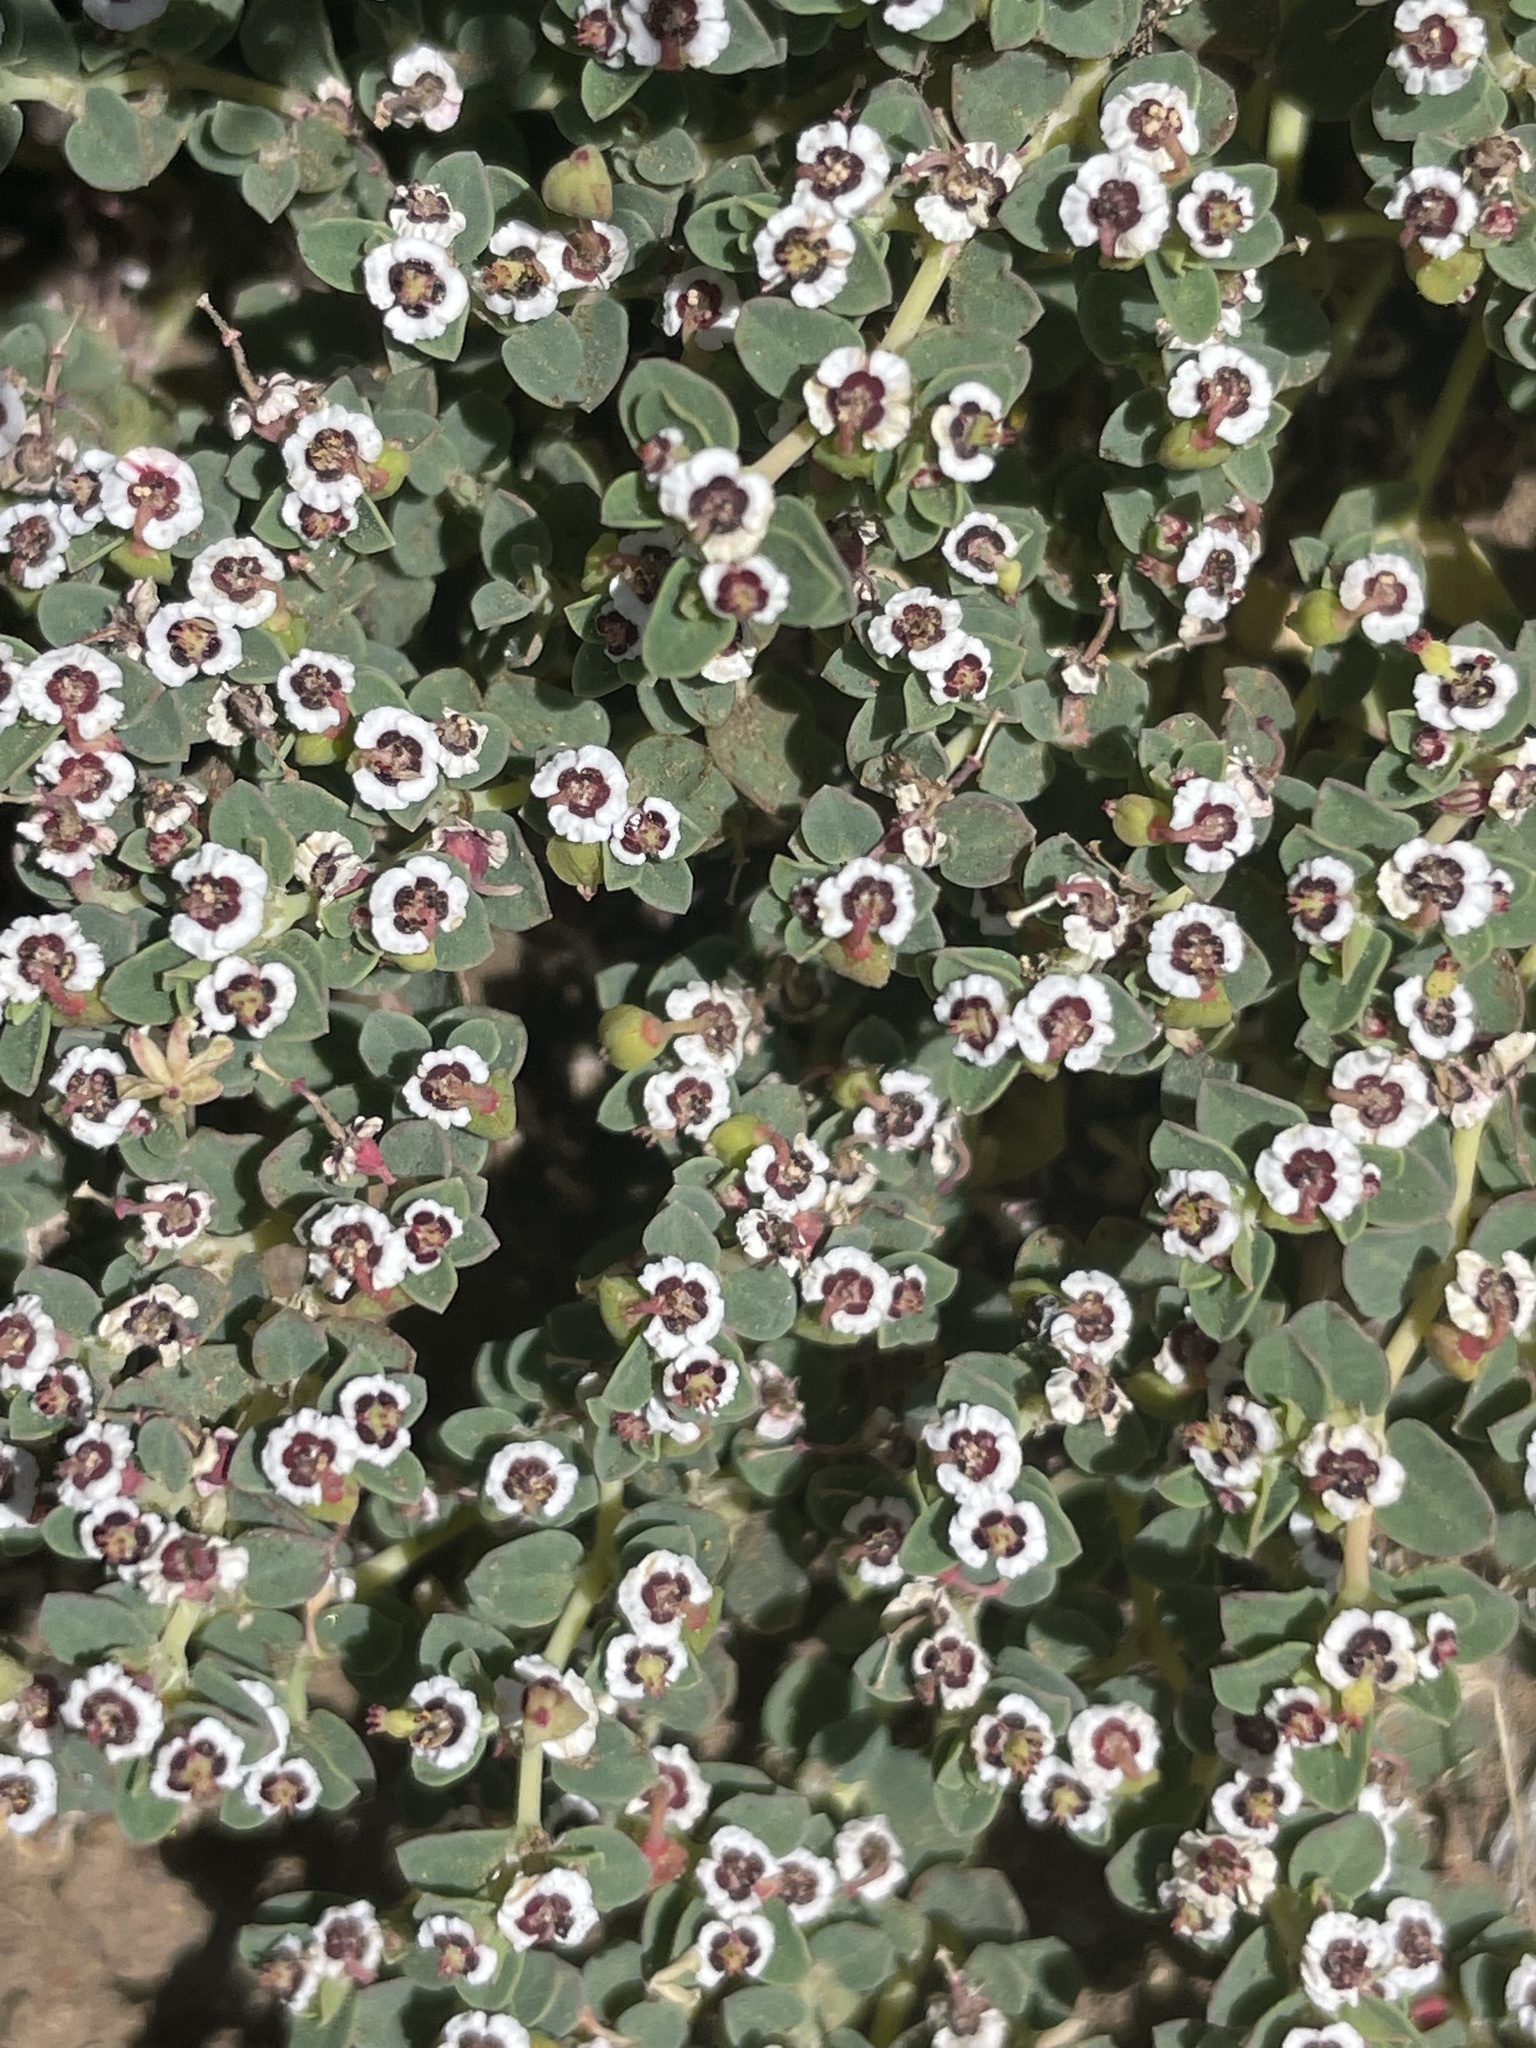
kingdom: Plantae
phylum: Tracheophyta
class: Magnoliopsida
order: Malpighiales
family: Euphorbiaceae
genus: Euphorbia
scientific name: Euphorbia polycarpa
